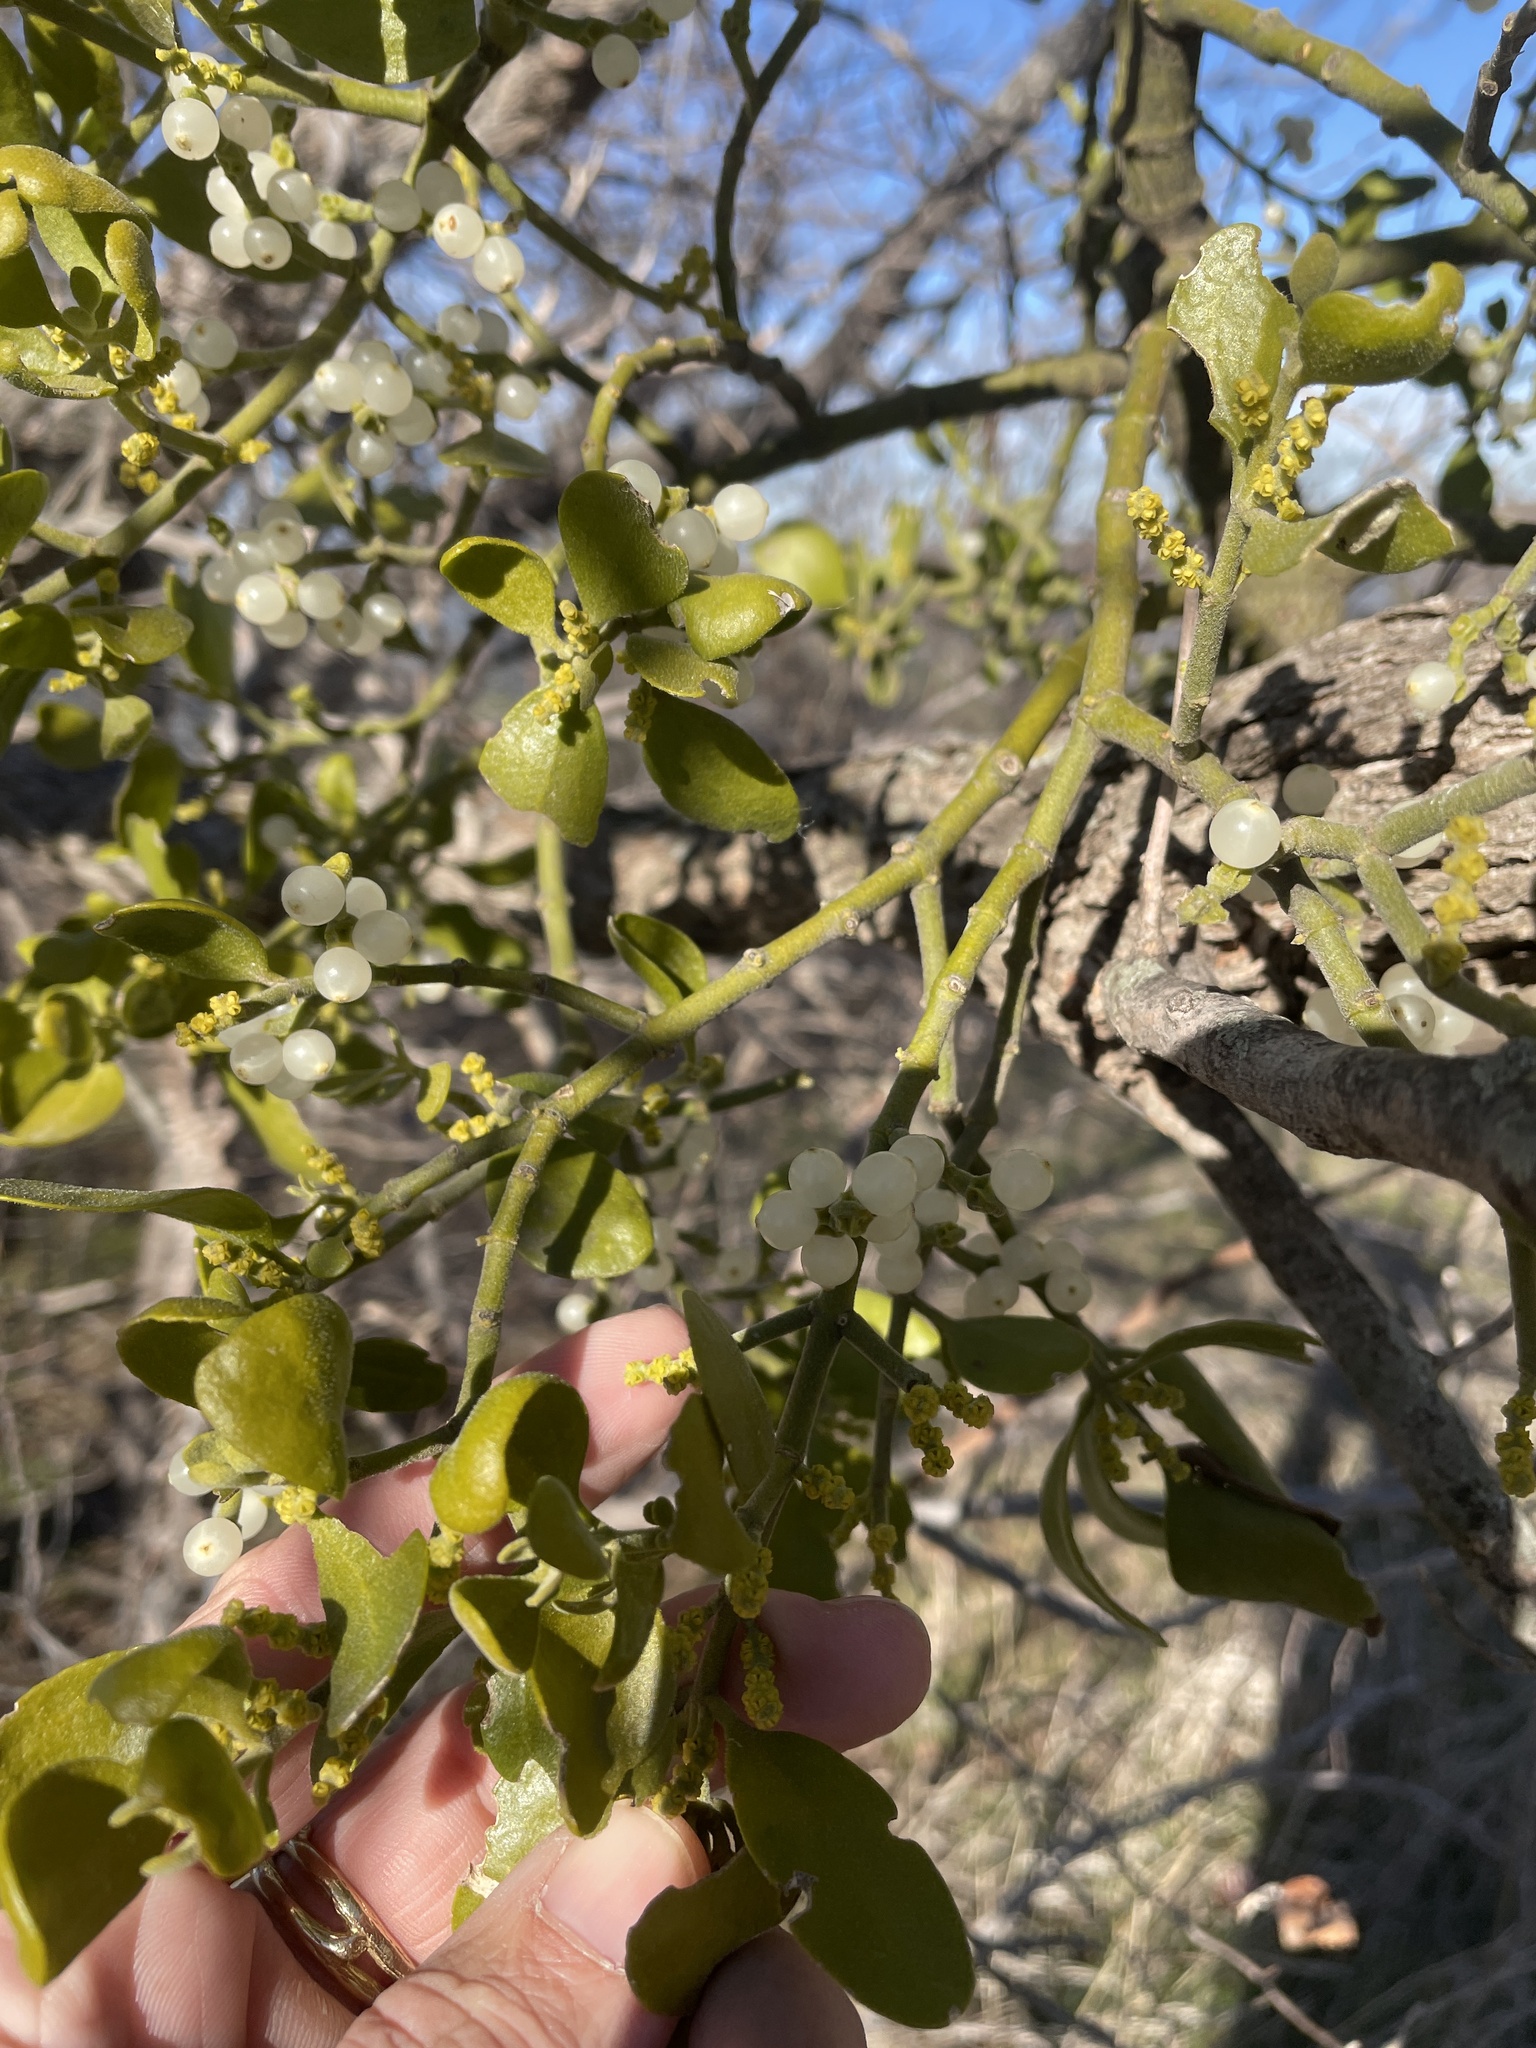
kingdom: Plantae
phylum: Tracheophyta
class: Magnoliopsida
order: Santalales
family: Viscaceae
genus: Phoradendron
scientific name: Phoradendron leucarpum
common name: Pacific mistletoe
